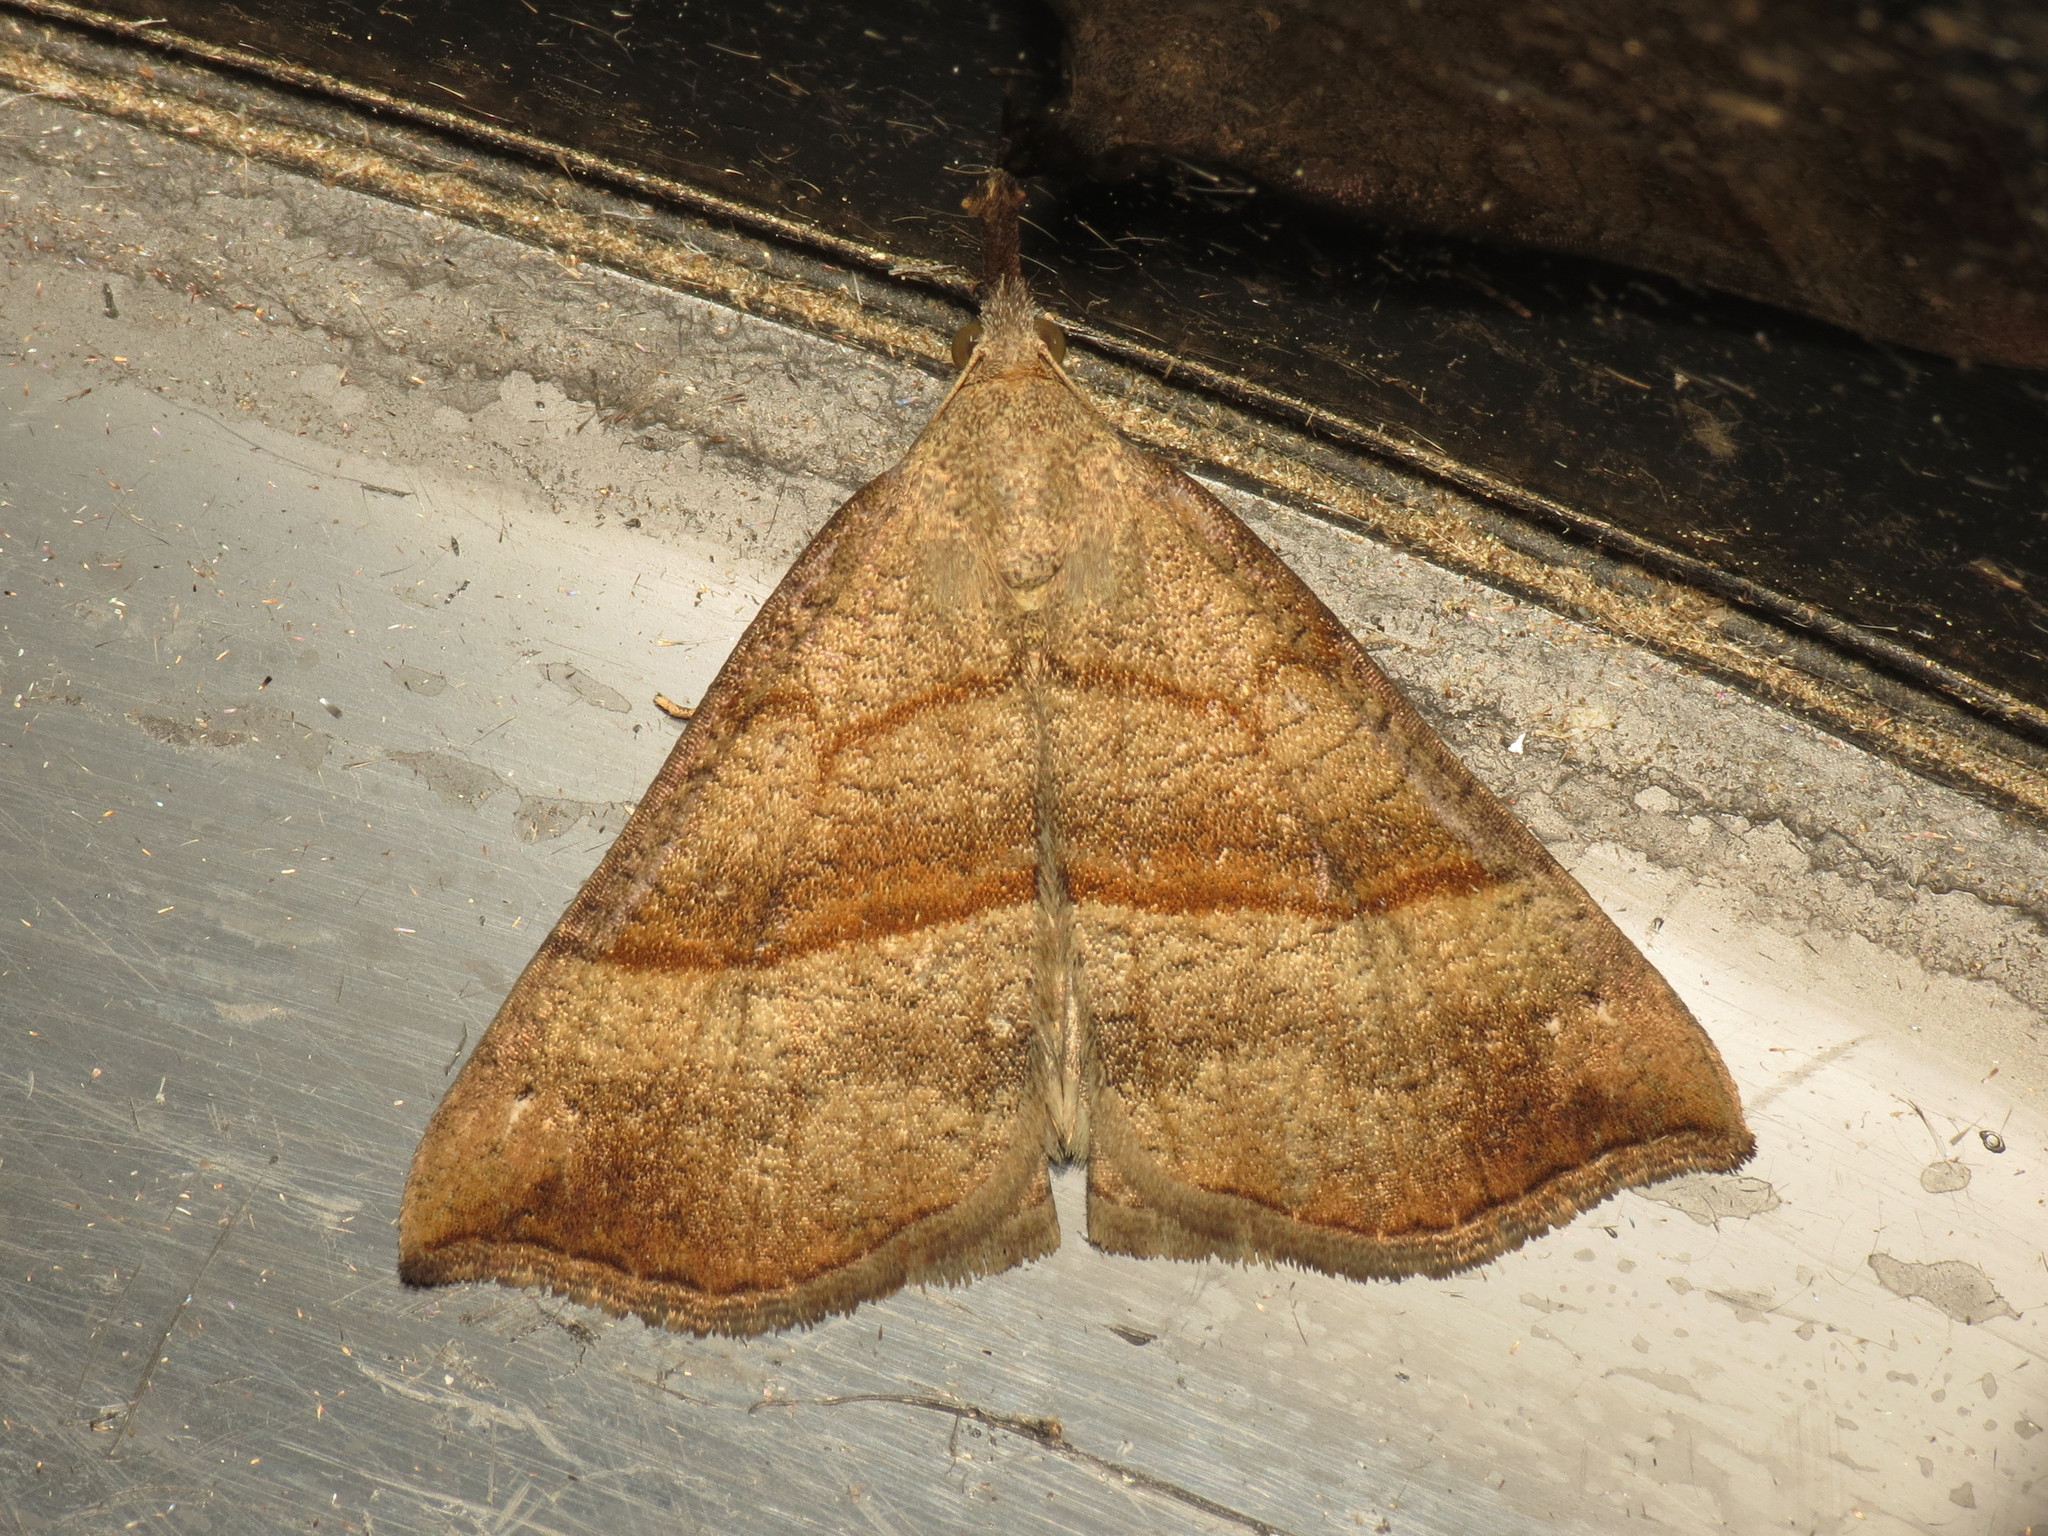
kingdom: Animalia
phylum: Arthropoda
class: Insecta
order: Lepidoptera
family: Erebidae
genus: Hypena
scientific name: Hypena proboscidalis
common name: Snout
